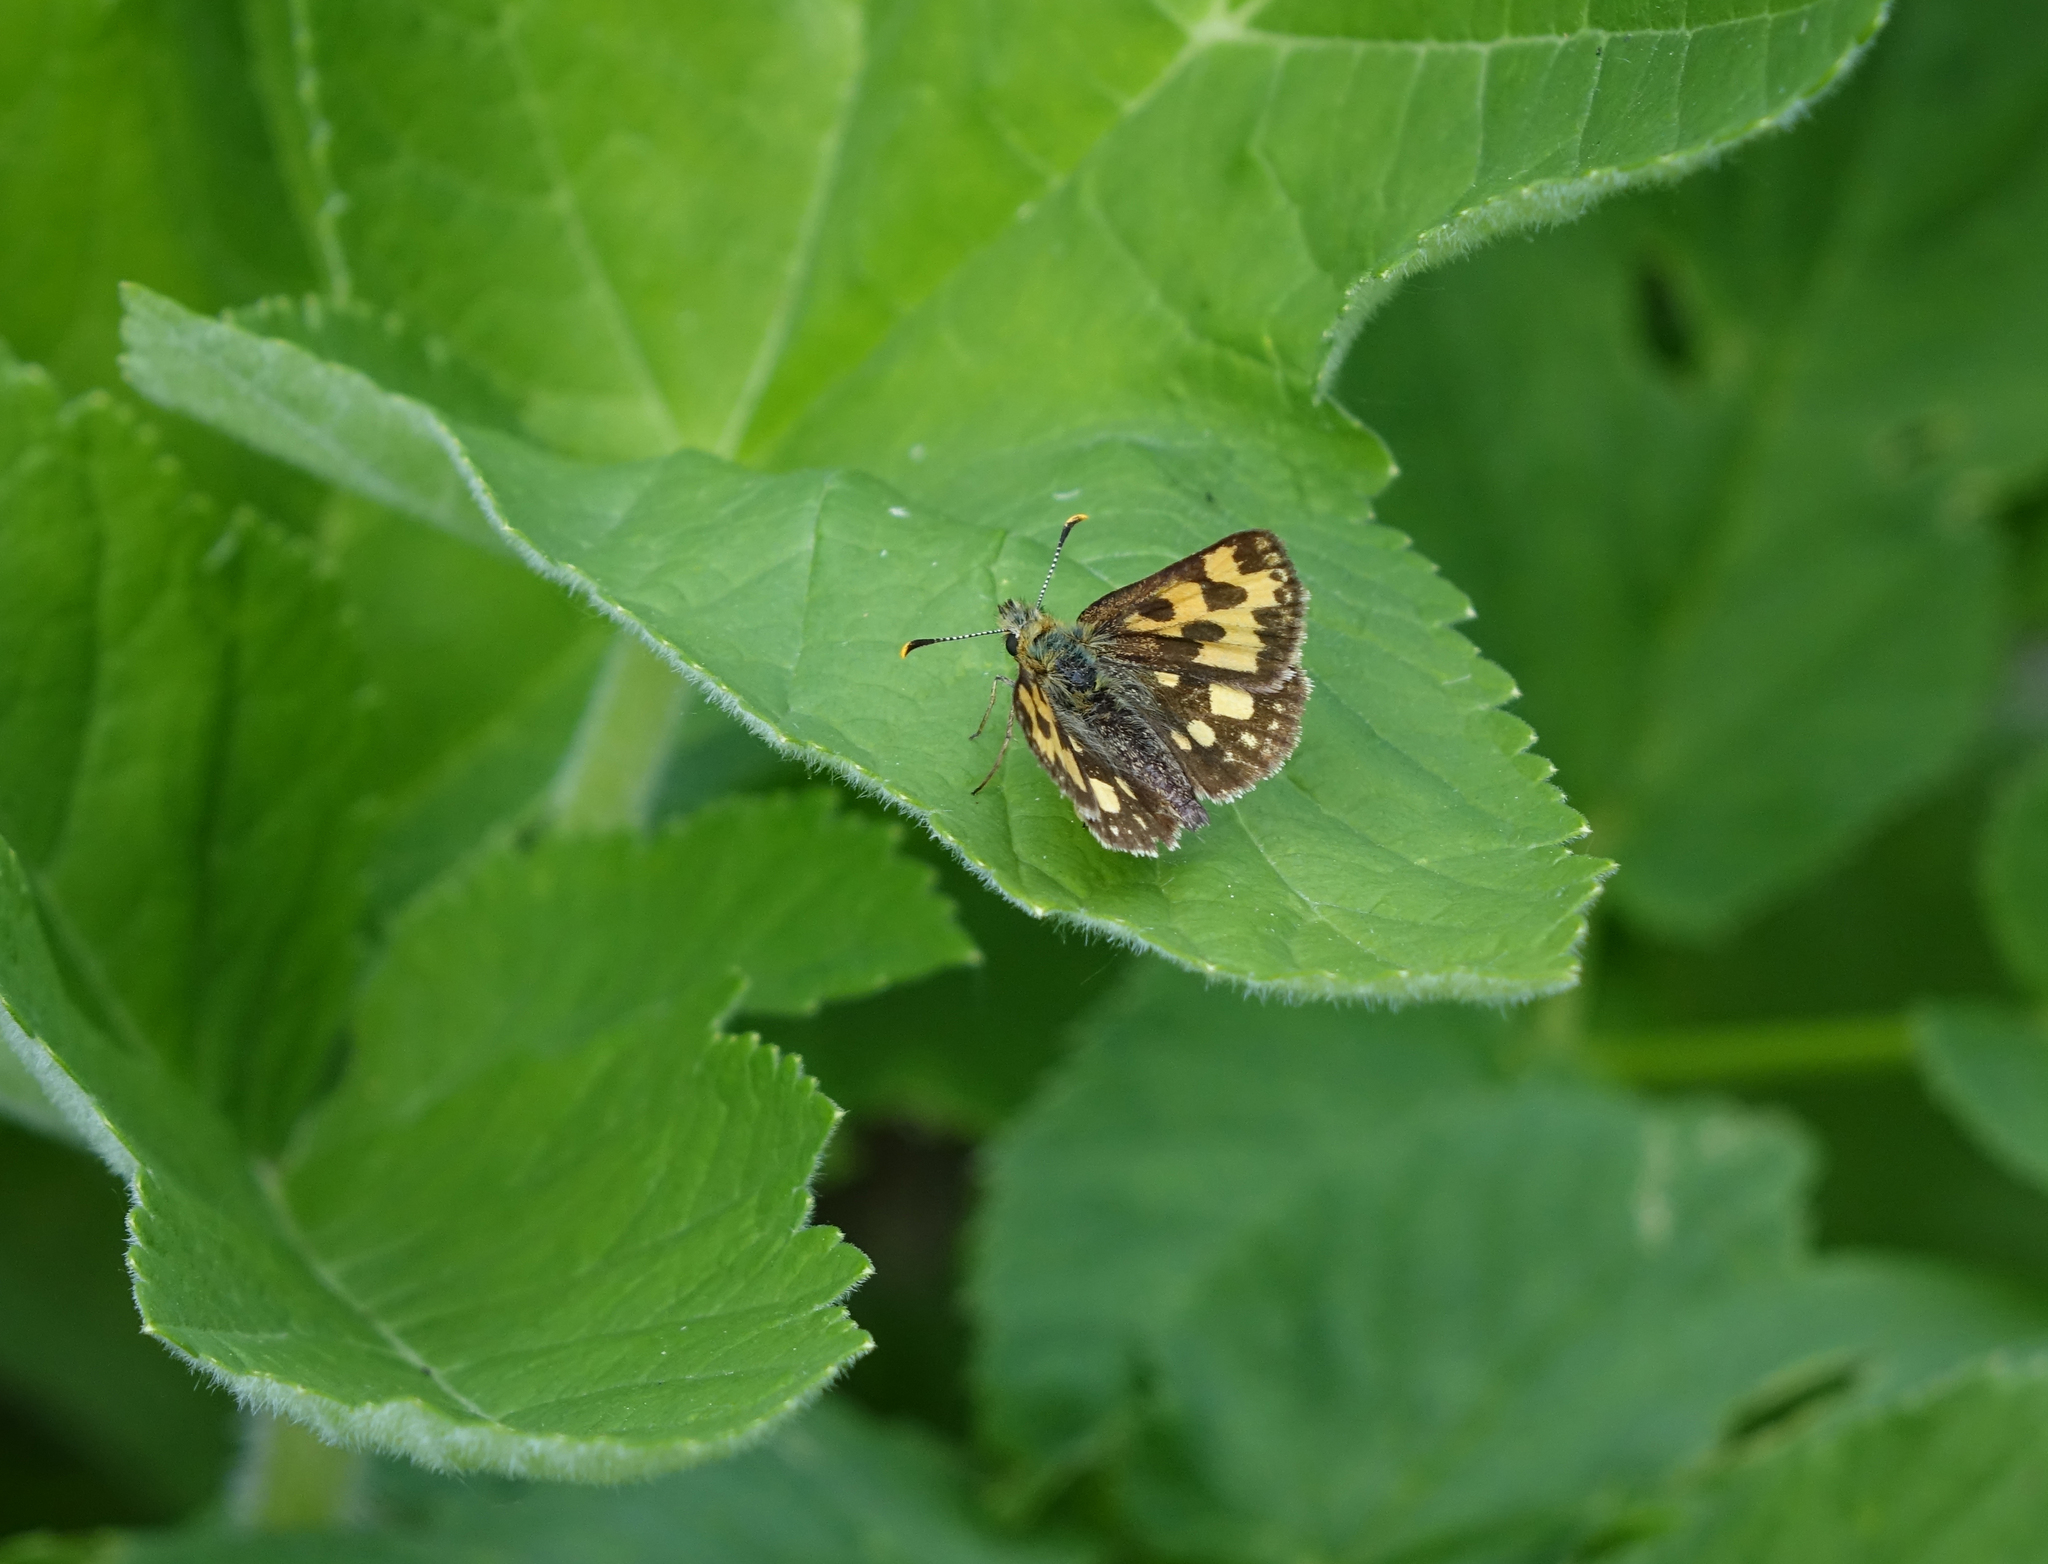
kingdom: Animalia
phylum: Arthropoda
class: Insecta
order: Lepidoptera
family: Hesperiidae
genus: Carterocephalus
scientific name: Carterocephalus silvicola
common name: Northern chequered skipper
